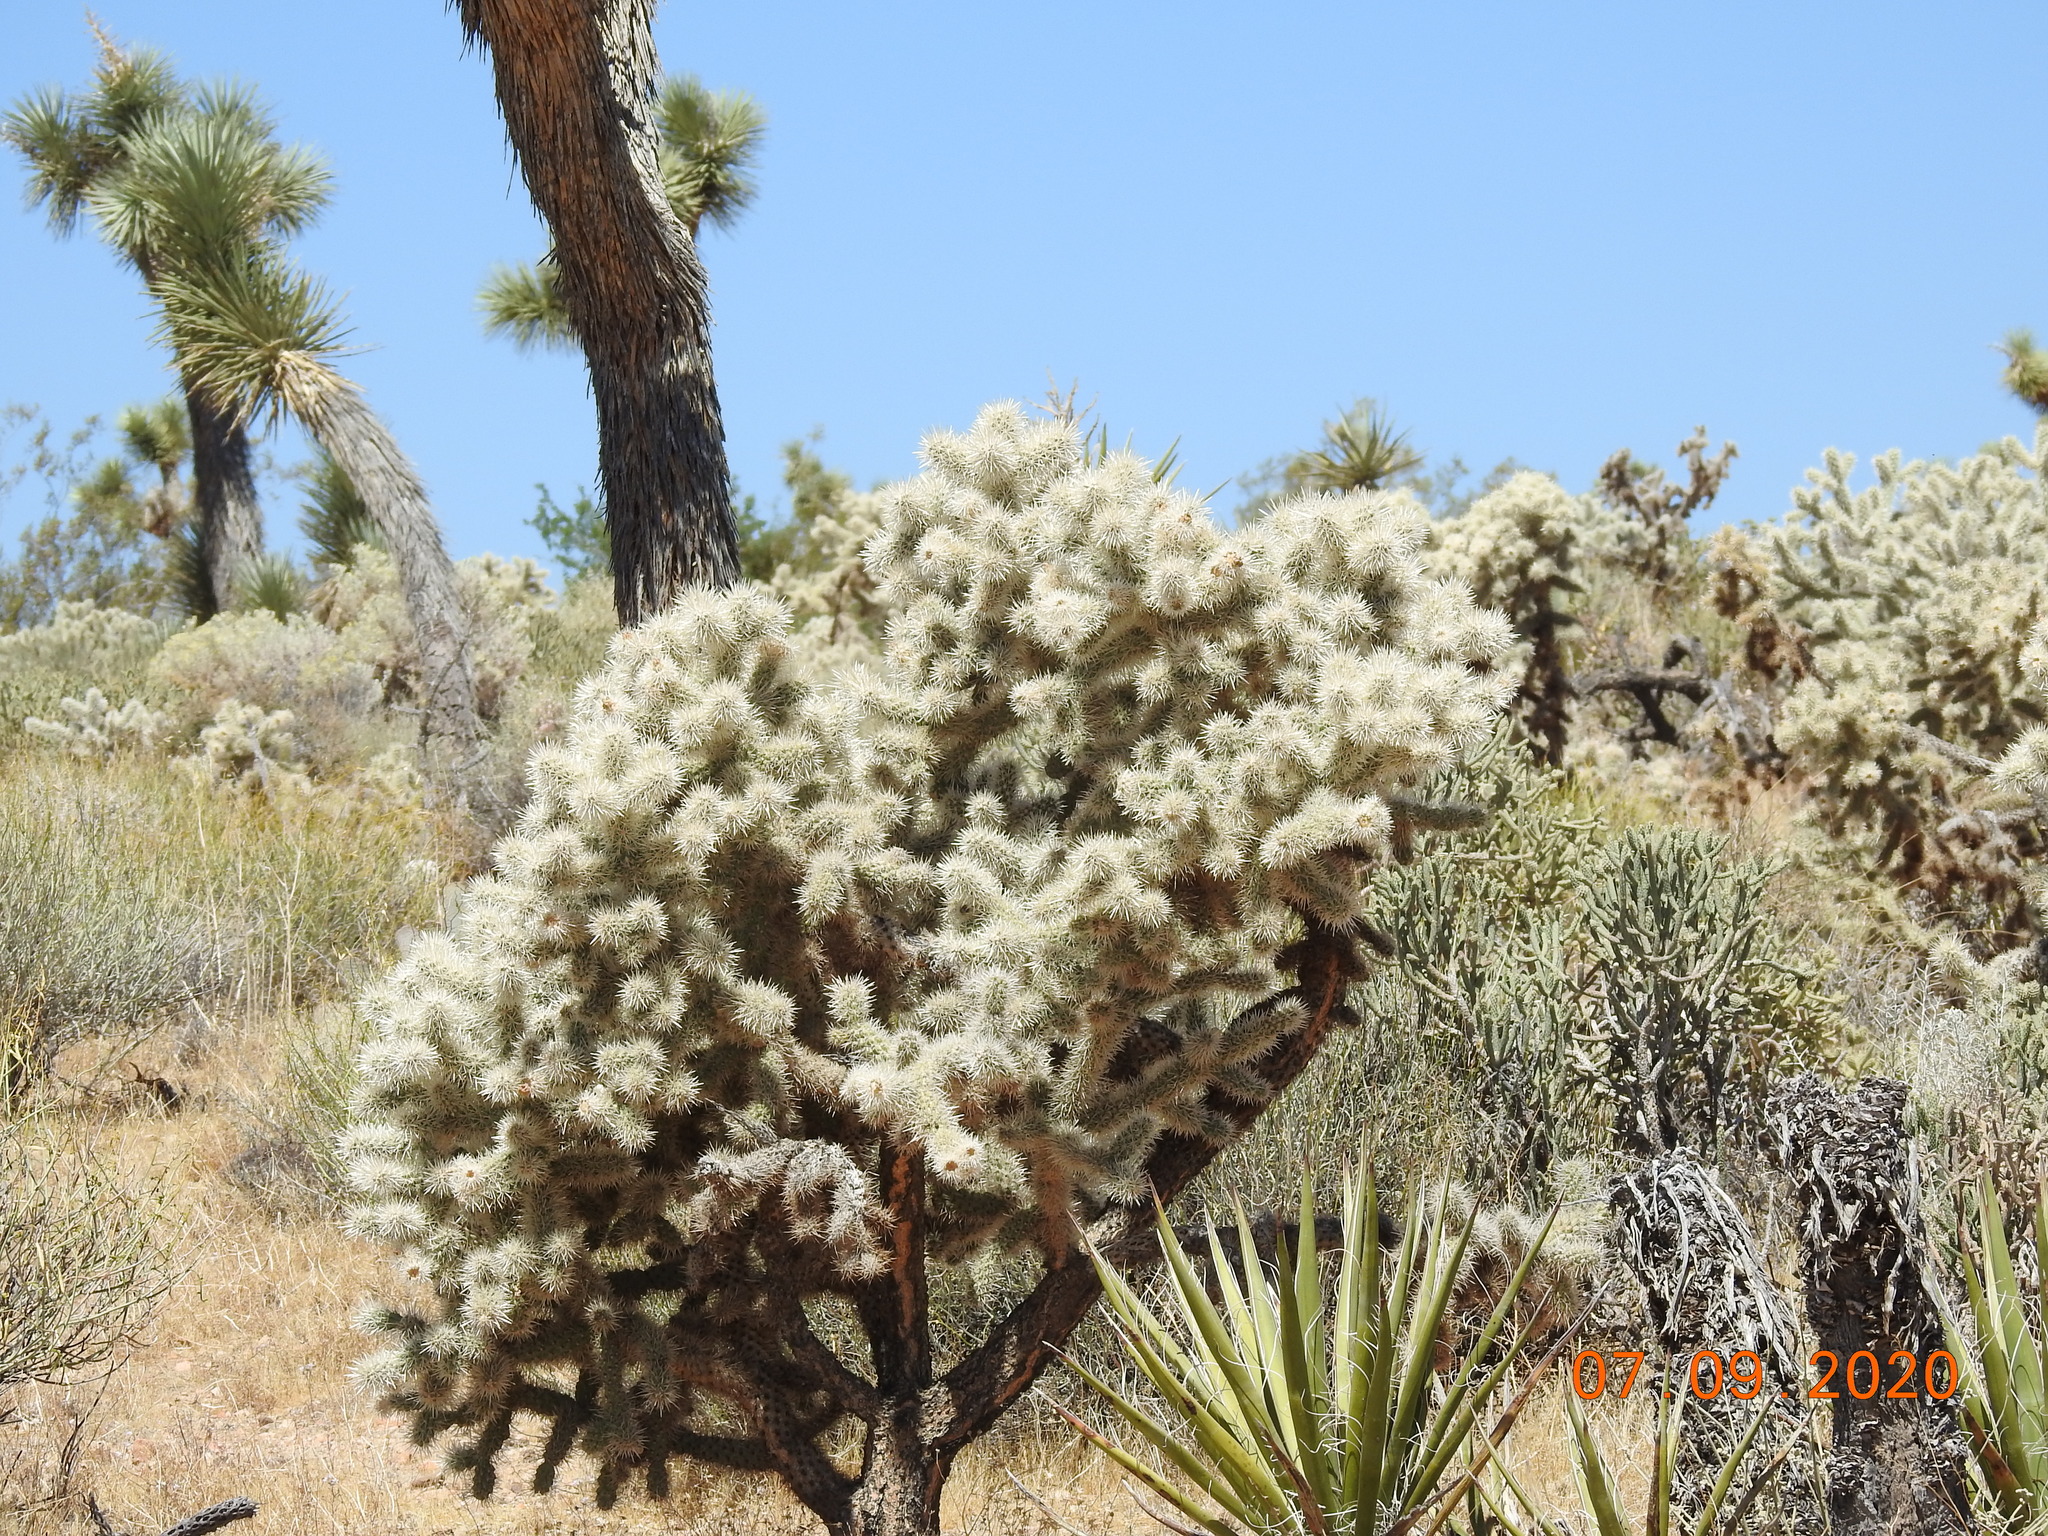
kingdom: Plantae
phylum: Tracheophyta
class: Magnoliopsida
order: Caryophyllales
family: Cactaceae
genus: Cylindropuntia
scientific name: Cylindropuntia echinocarpa
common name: Ground cholla
